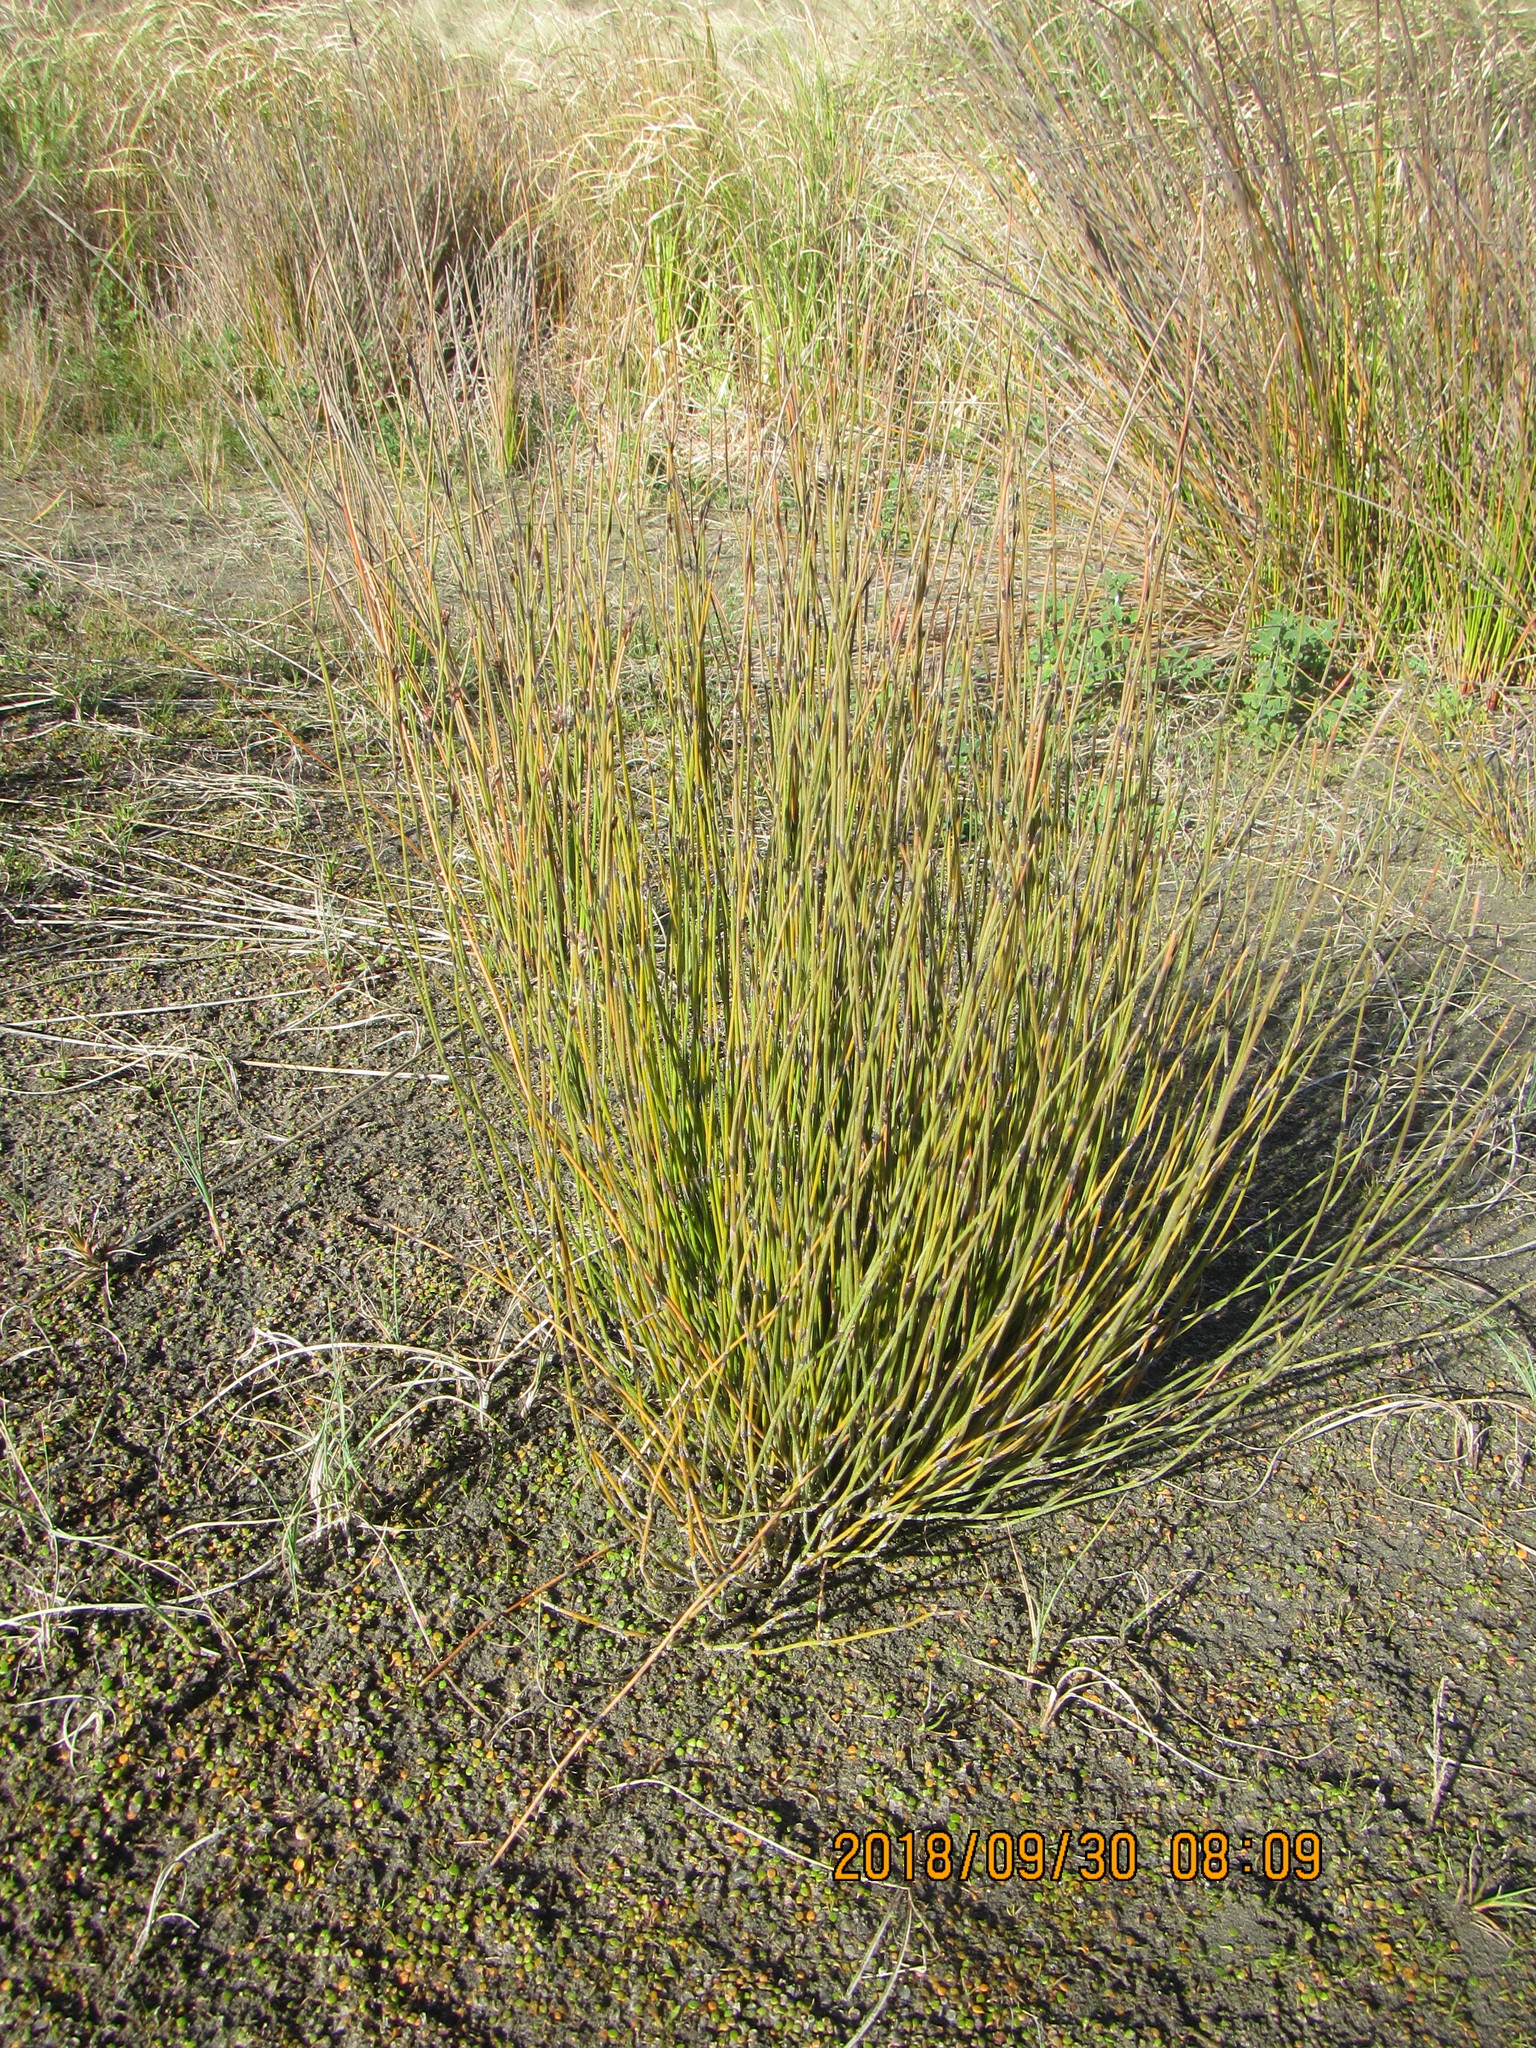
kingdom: Plantae
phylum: Tracheophyta
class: Liliopsida
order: Poales
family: Restionaceae
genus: Apodasmia
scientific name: Apodasmia similis
